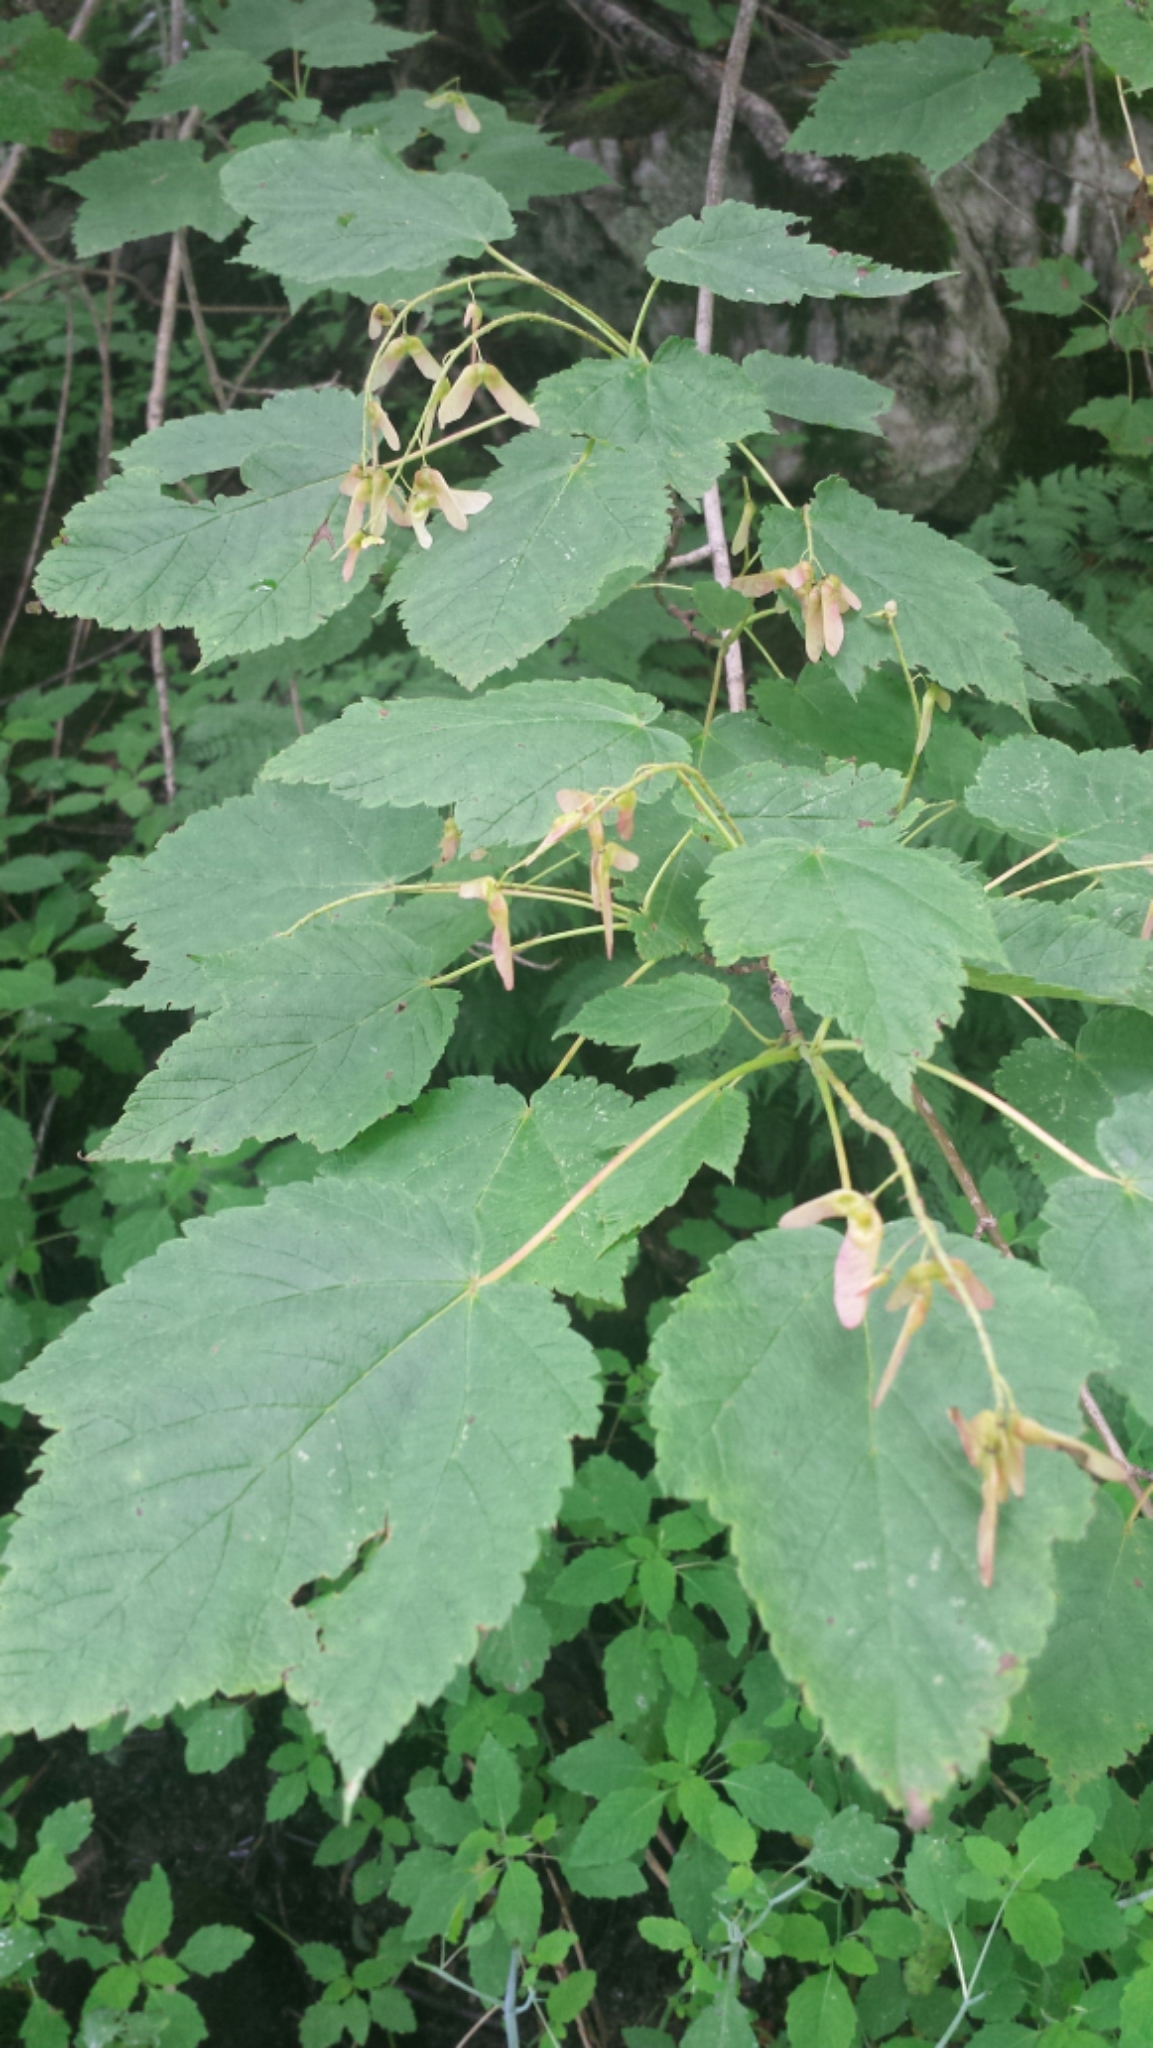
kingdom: Plantae
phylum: Tracheophyta
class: Magnoliopsida
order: Sapindales
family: Sapindaceae
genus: Acer
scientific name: Acer spicatum
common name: Mountain maple
